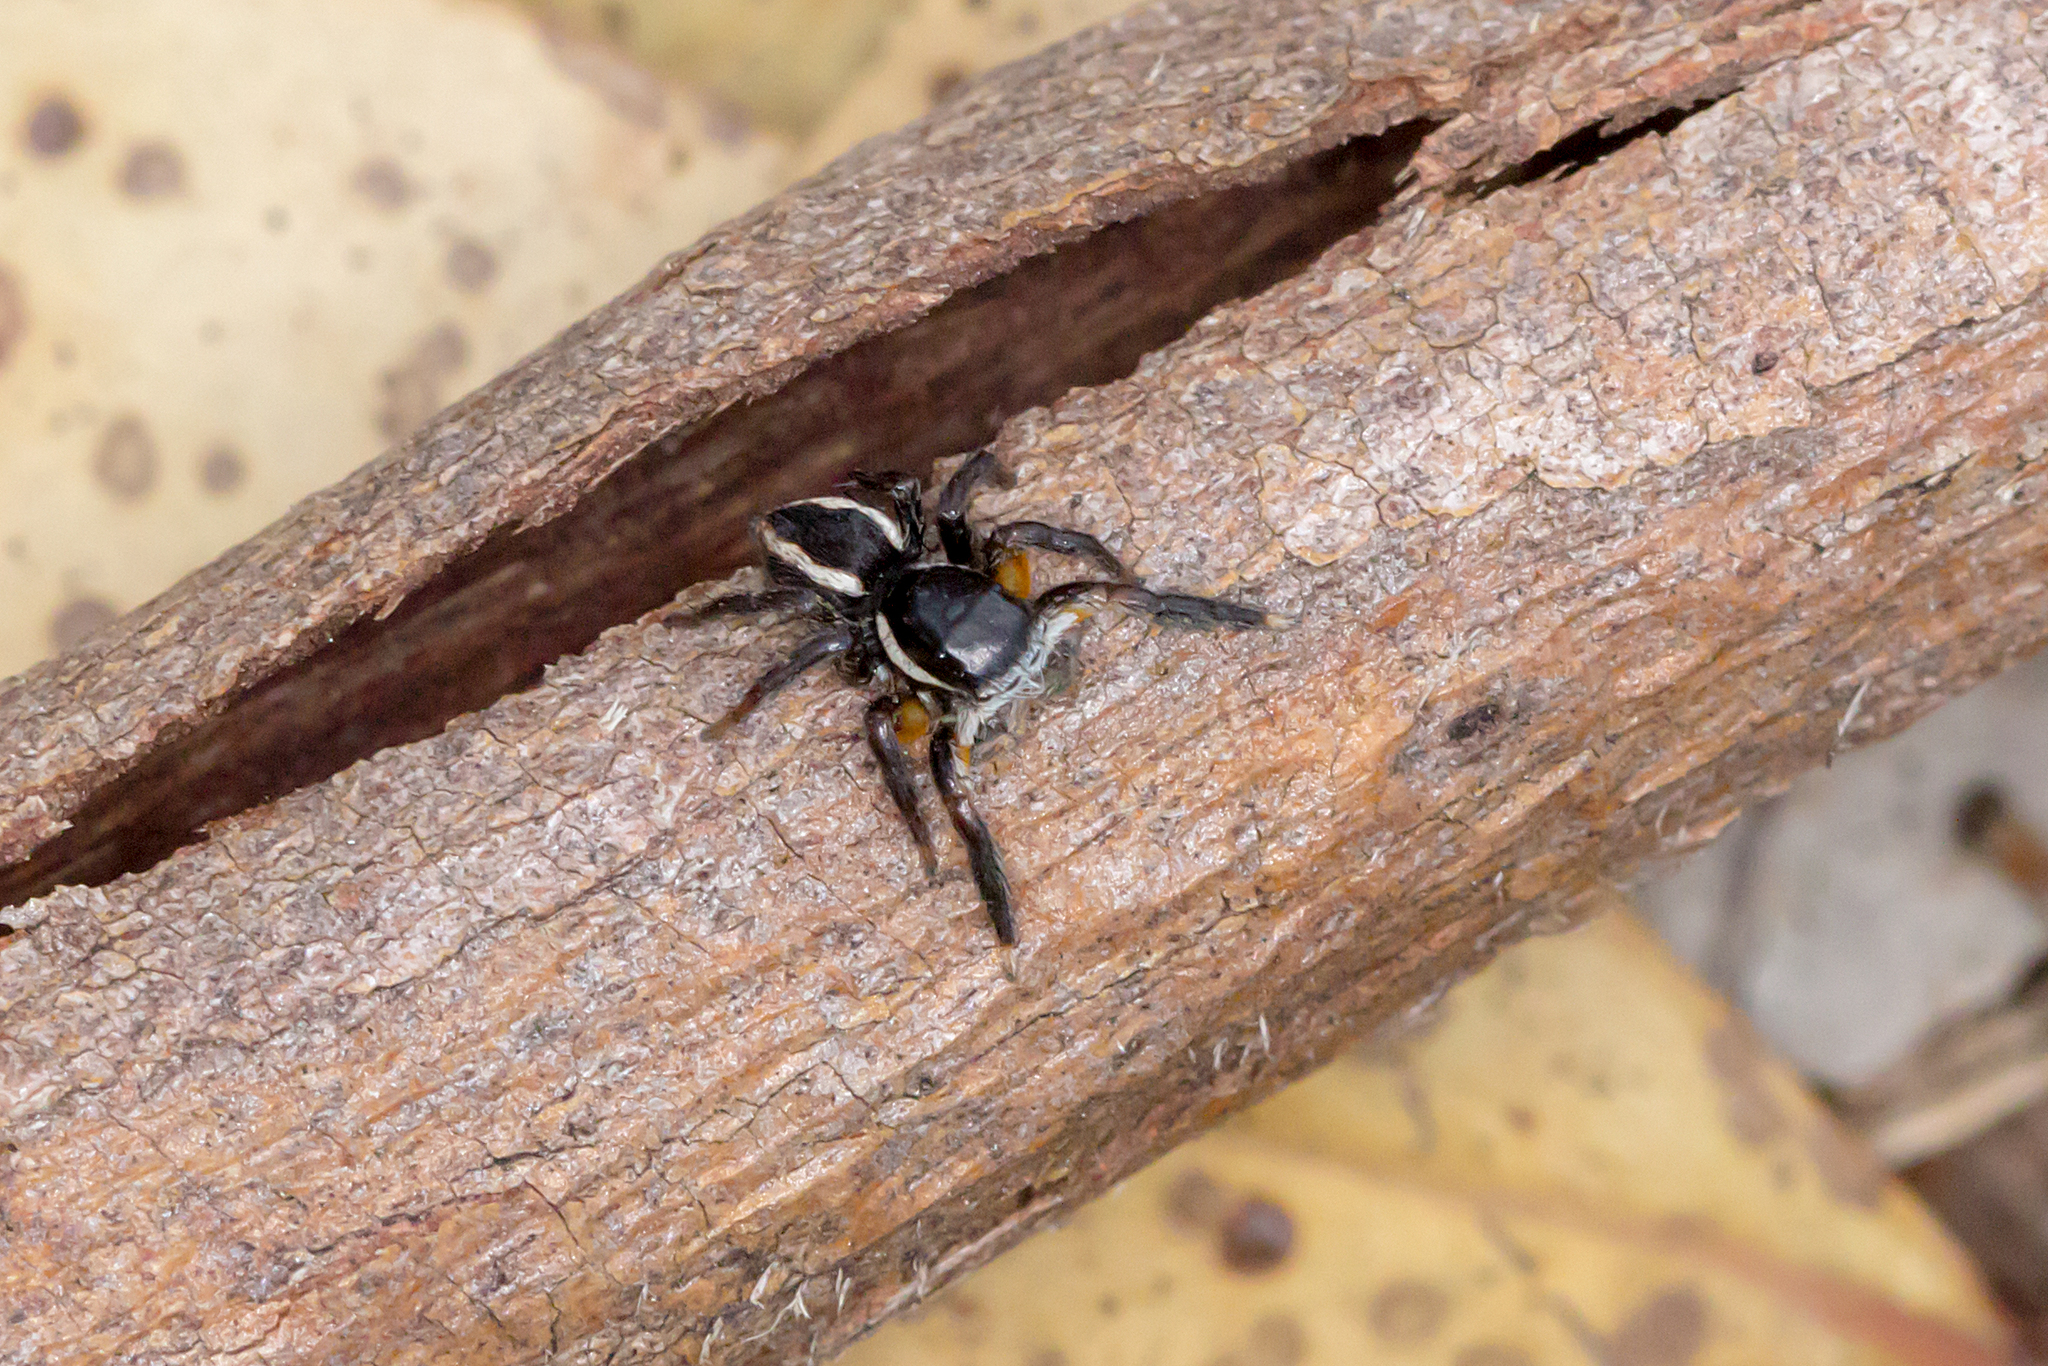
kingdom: Animalia
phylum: Arthropoda
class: Arachnida
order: Araneae
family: Salticidae
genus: Jotus
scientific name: Jotus auripes
